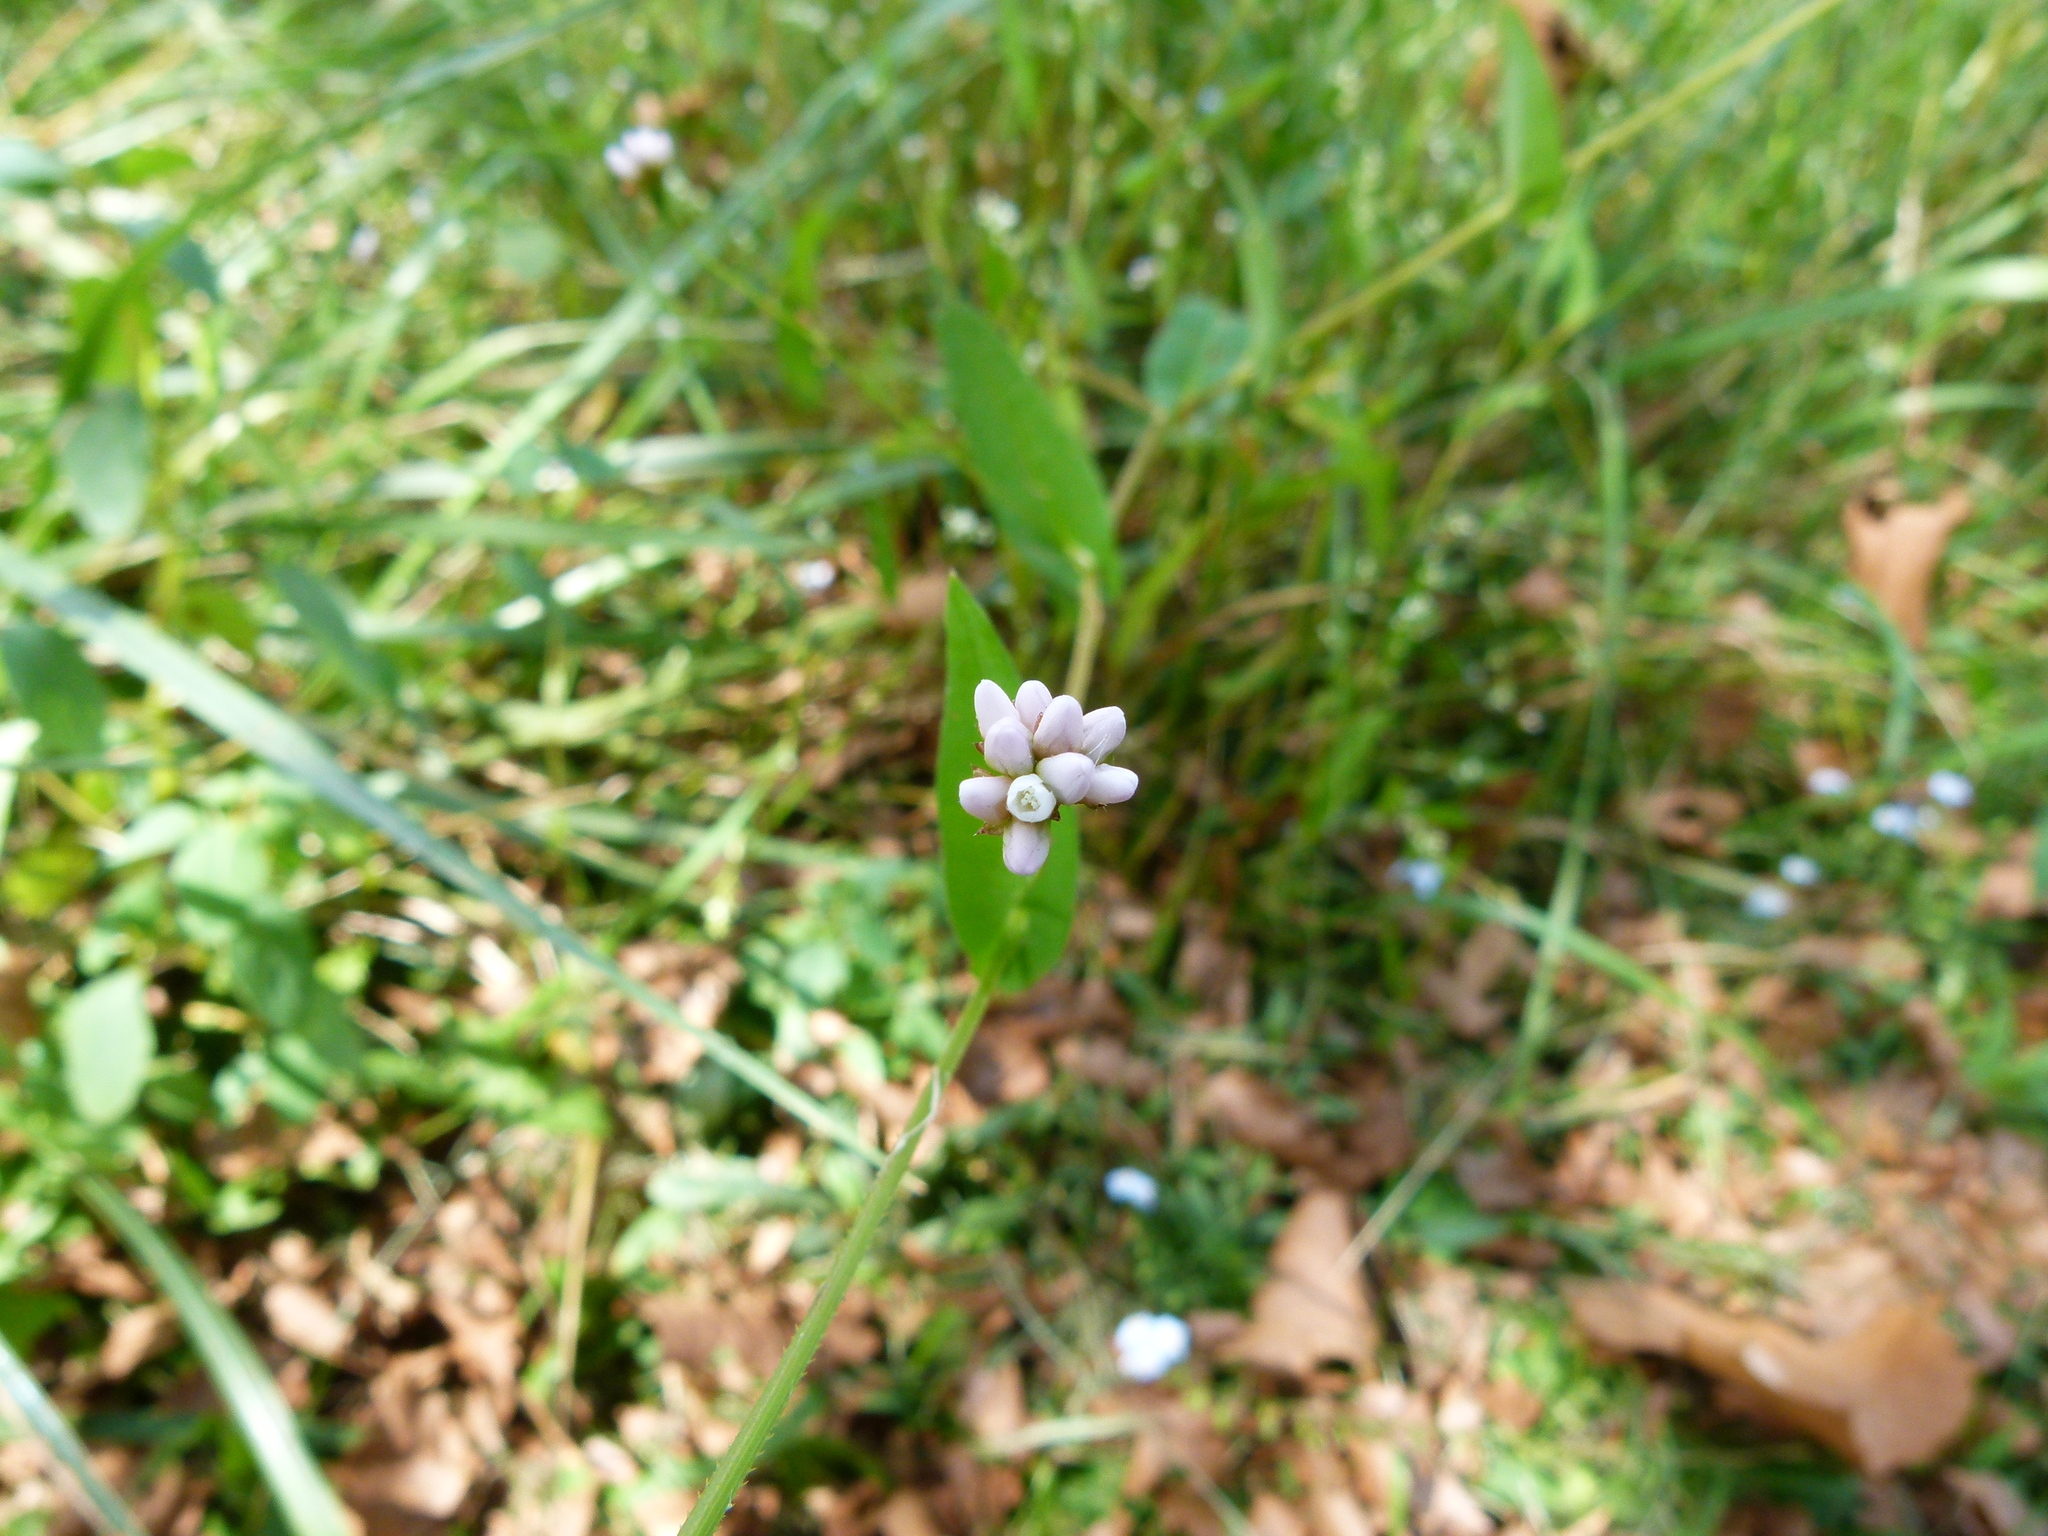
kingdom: Plantae
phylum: Tracheophyta
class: Magnoliopsida
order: Caryophyllales
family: Polygonaceae
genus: Persicaria
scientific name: Persicaria sagittata
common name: American tearthumb
